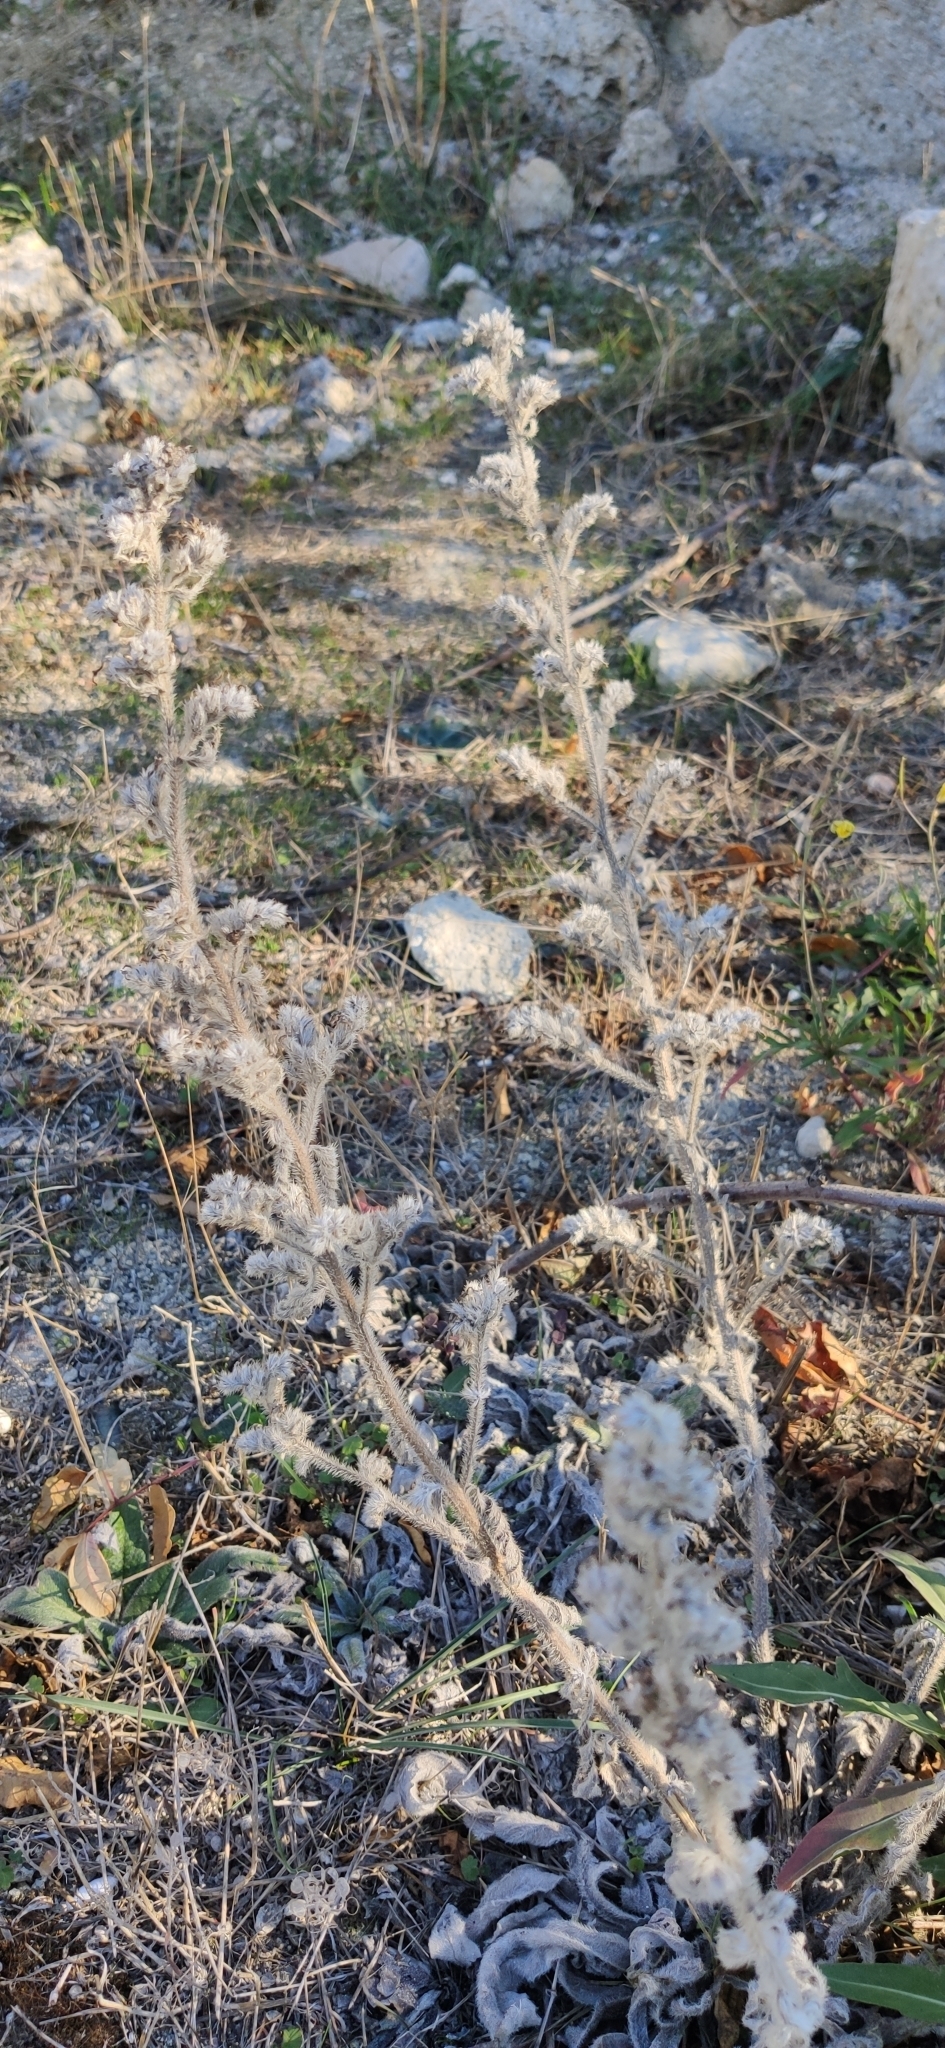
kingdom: Plantae
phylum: Tracheophyta
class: Magnoliopsida
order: Boraginales
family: Boraginaceae
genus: Echium
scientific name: Echium vulgare
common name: Common viper's bugloss
